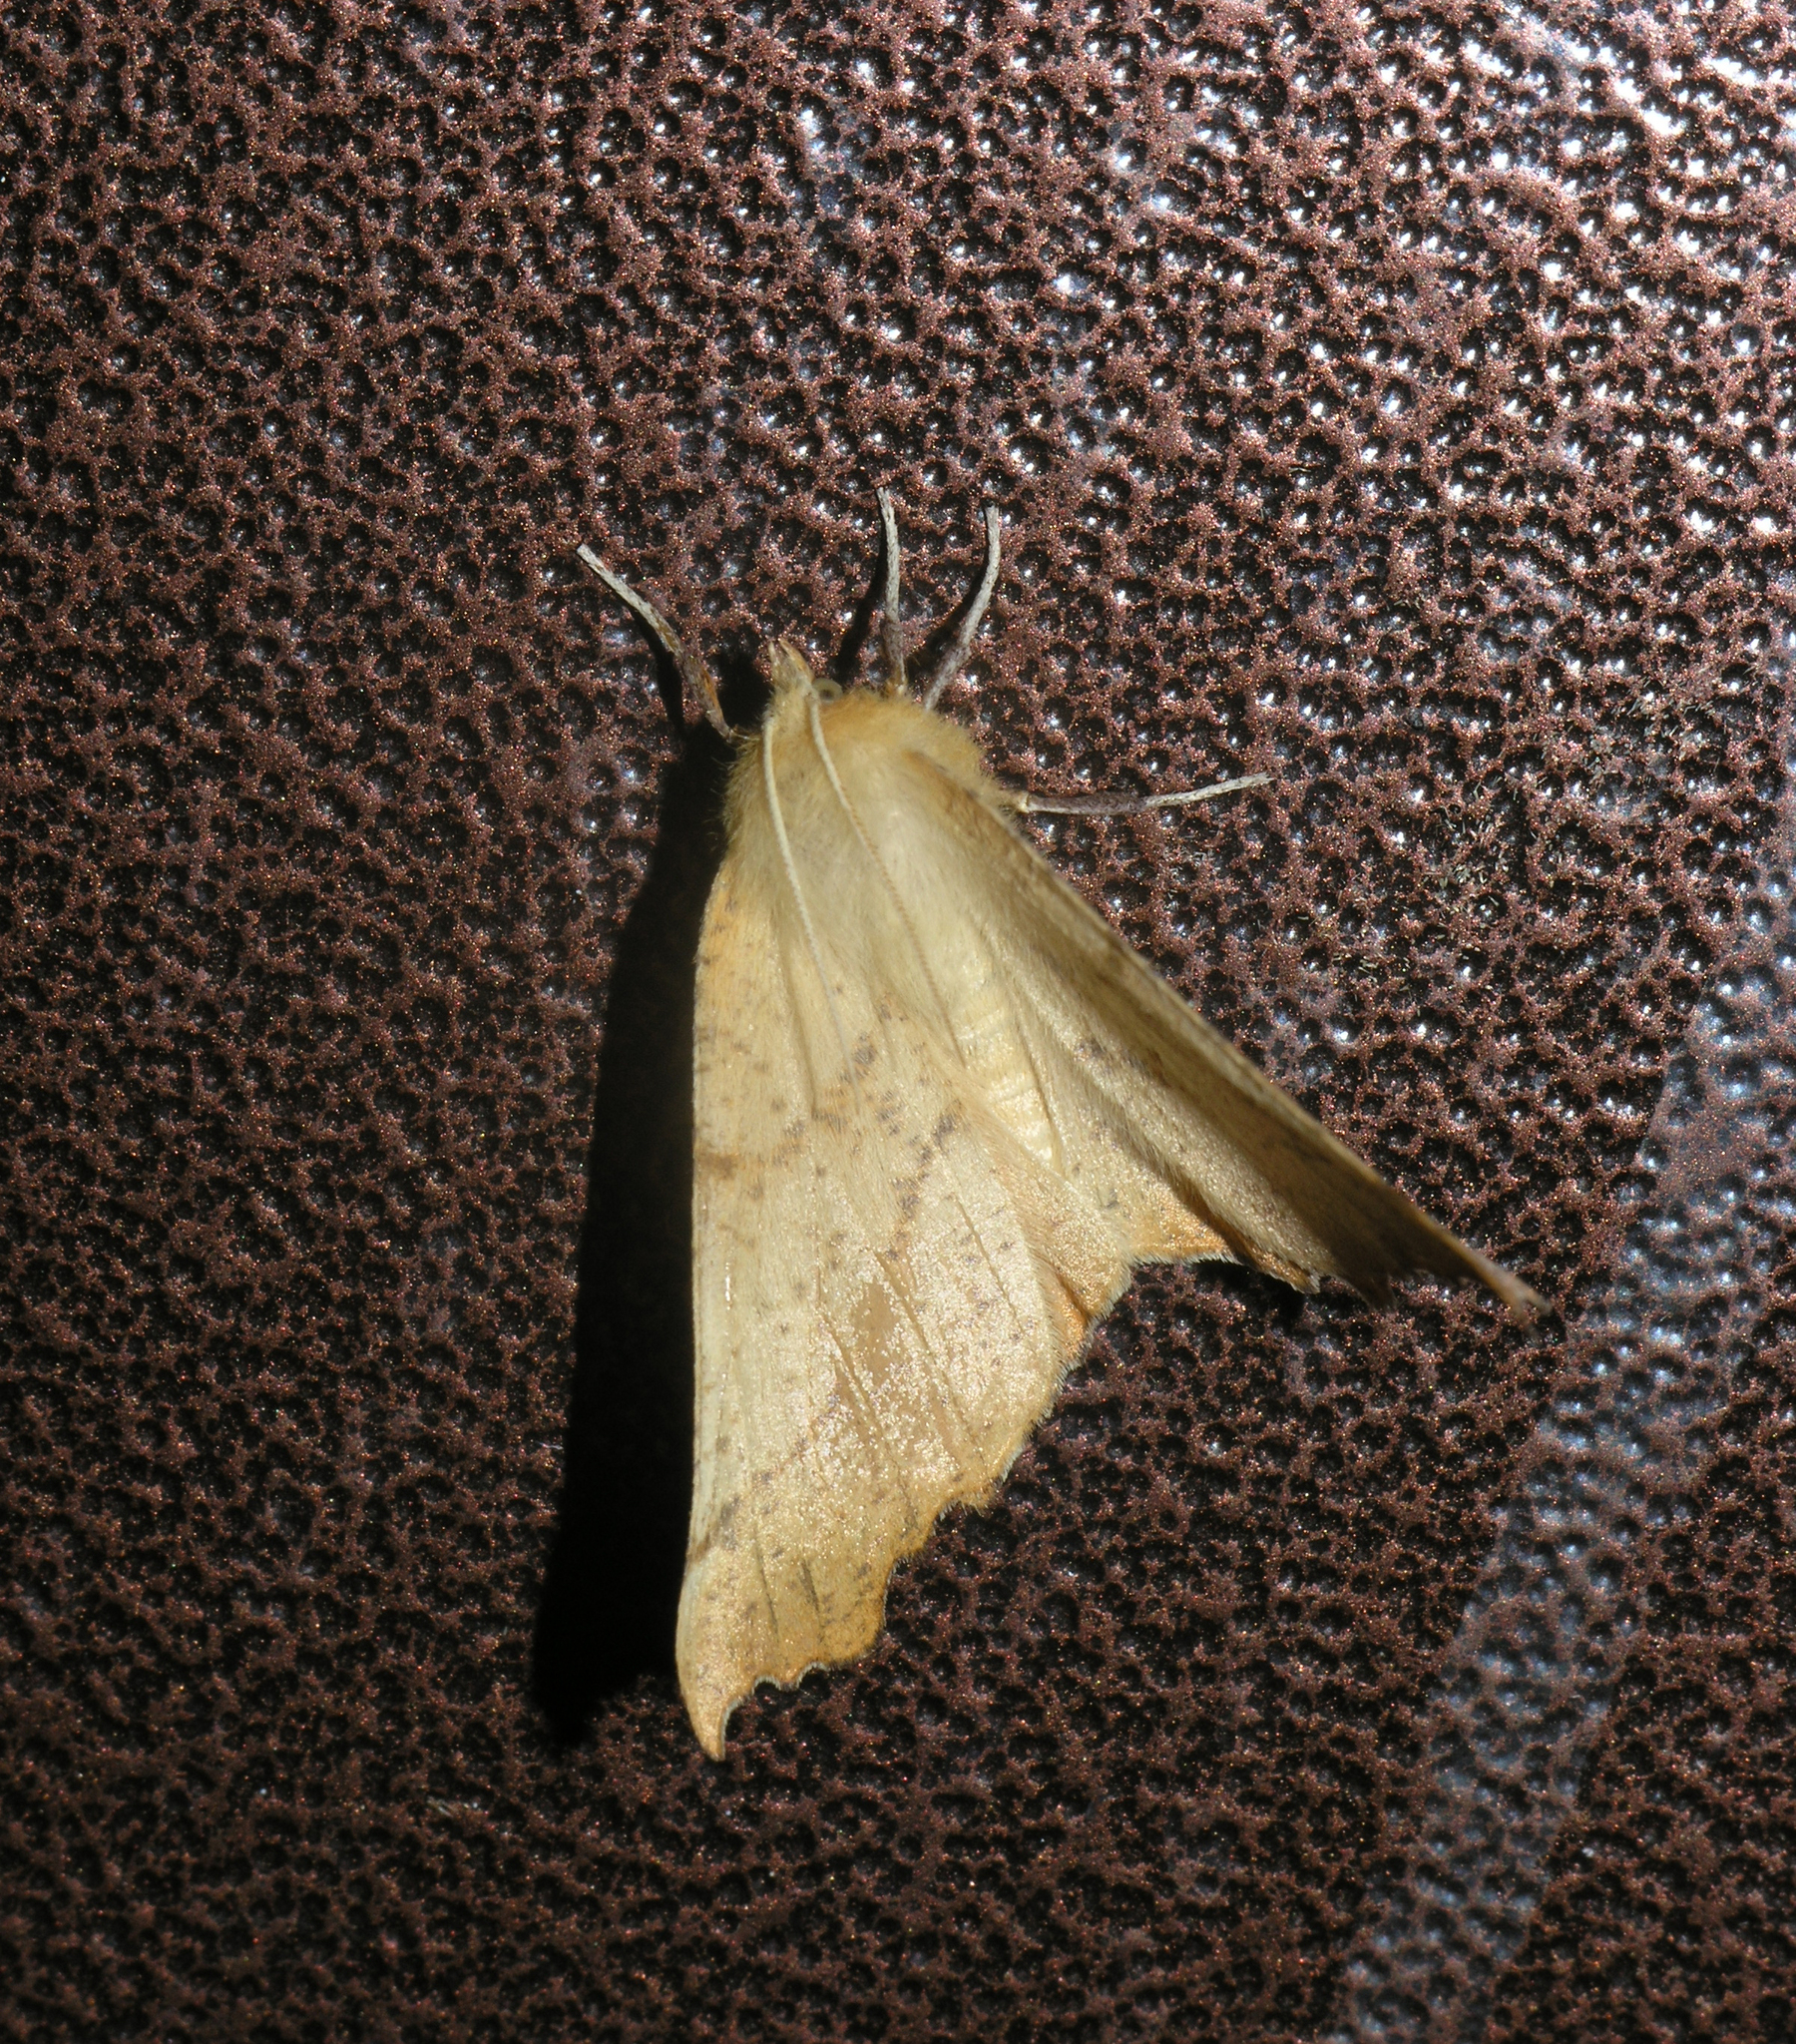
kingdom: Animalia
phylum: Arthropoda
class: Insecta
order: Lepidoptera
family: Geometridae
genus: Ennomos
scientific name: Ennomos autumnaria
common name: Large thorn
